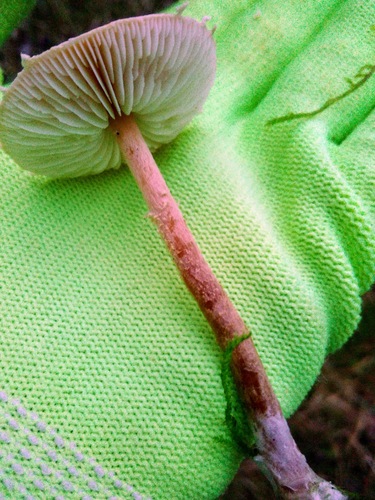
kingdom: Fungi
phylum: Basidiomycota
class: Agaricomycetes
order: Agaricales
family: Tricholomataceae
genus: Cystoderma
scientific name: Cystoderma
